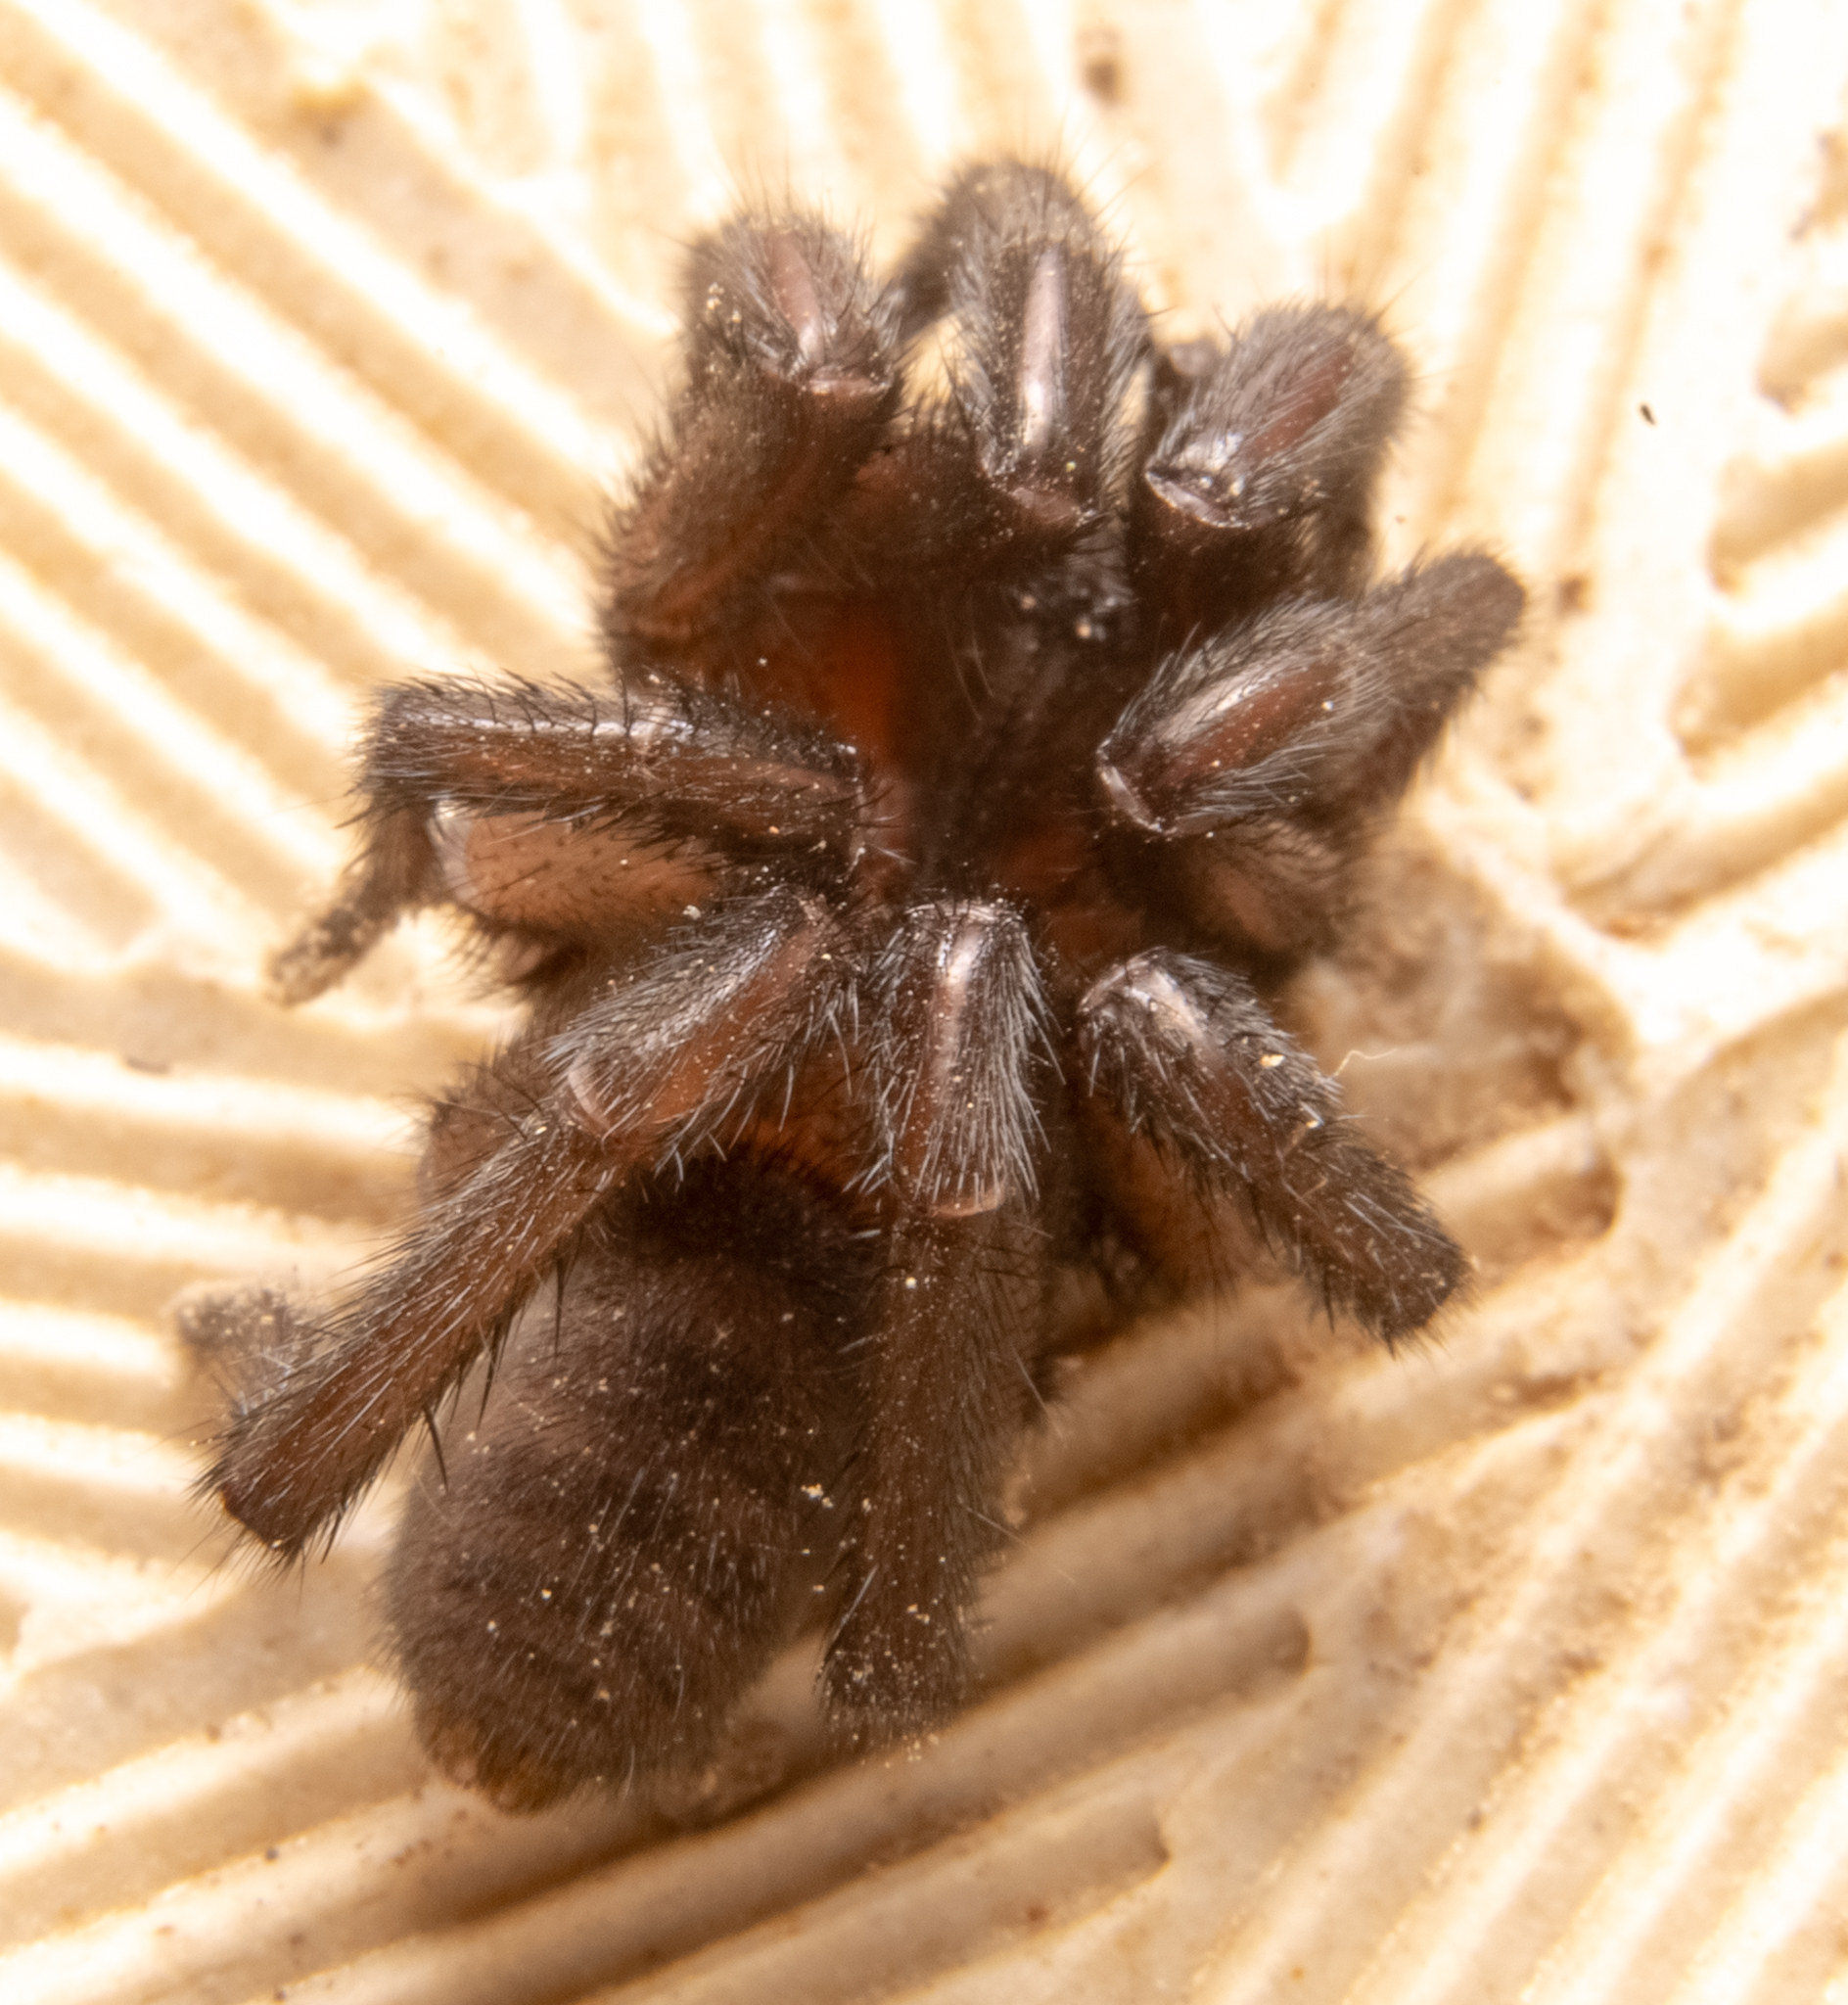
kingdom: Animalia
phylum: Arthropoda
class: Arachnida
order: Araneae
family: Euctenizidae
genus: Promyrmekiaphila
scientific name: Promyrmekiaphila clathrata
